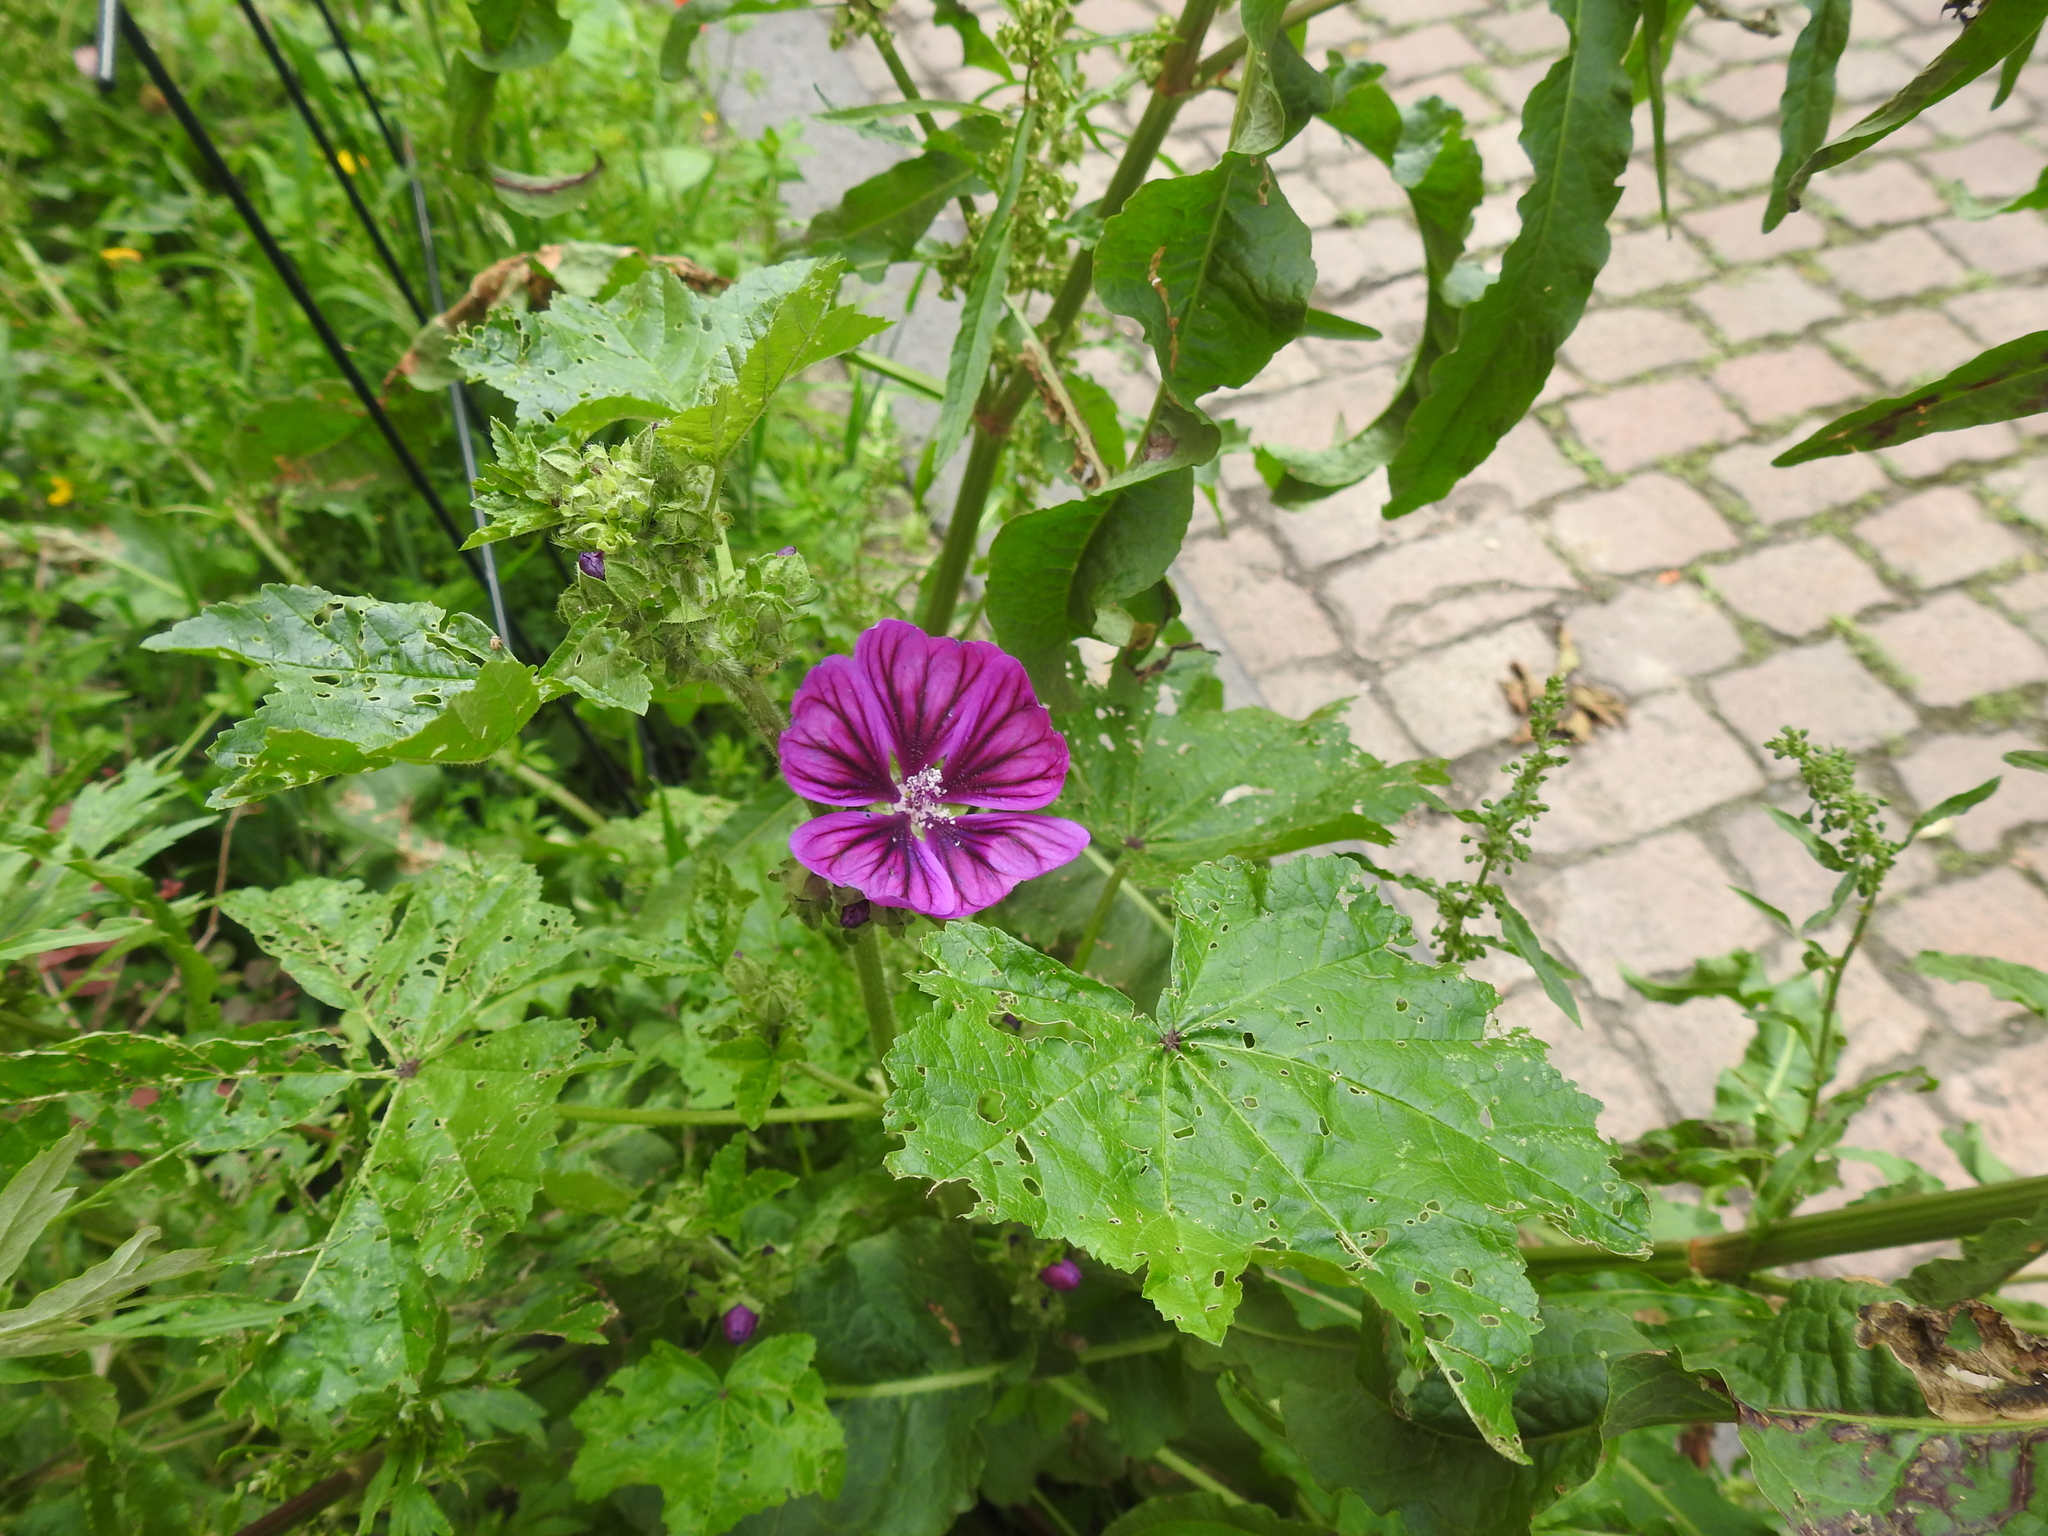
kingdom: Plantae
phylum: Tracheophyta
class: Magnoliopsida
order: Malvales
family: Malvaceae
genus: Malva
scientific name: Malva sylvestris
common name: Common mallow
